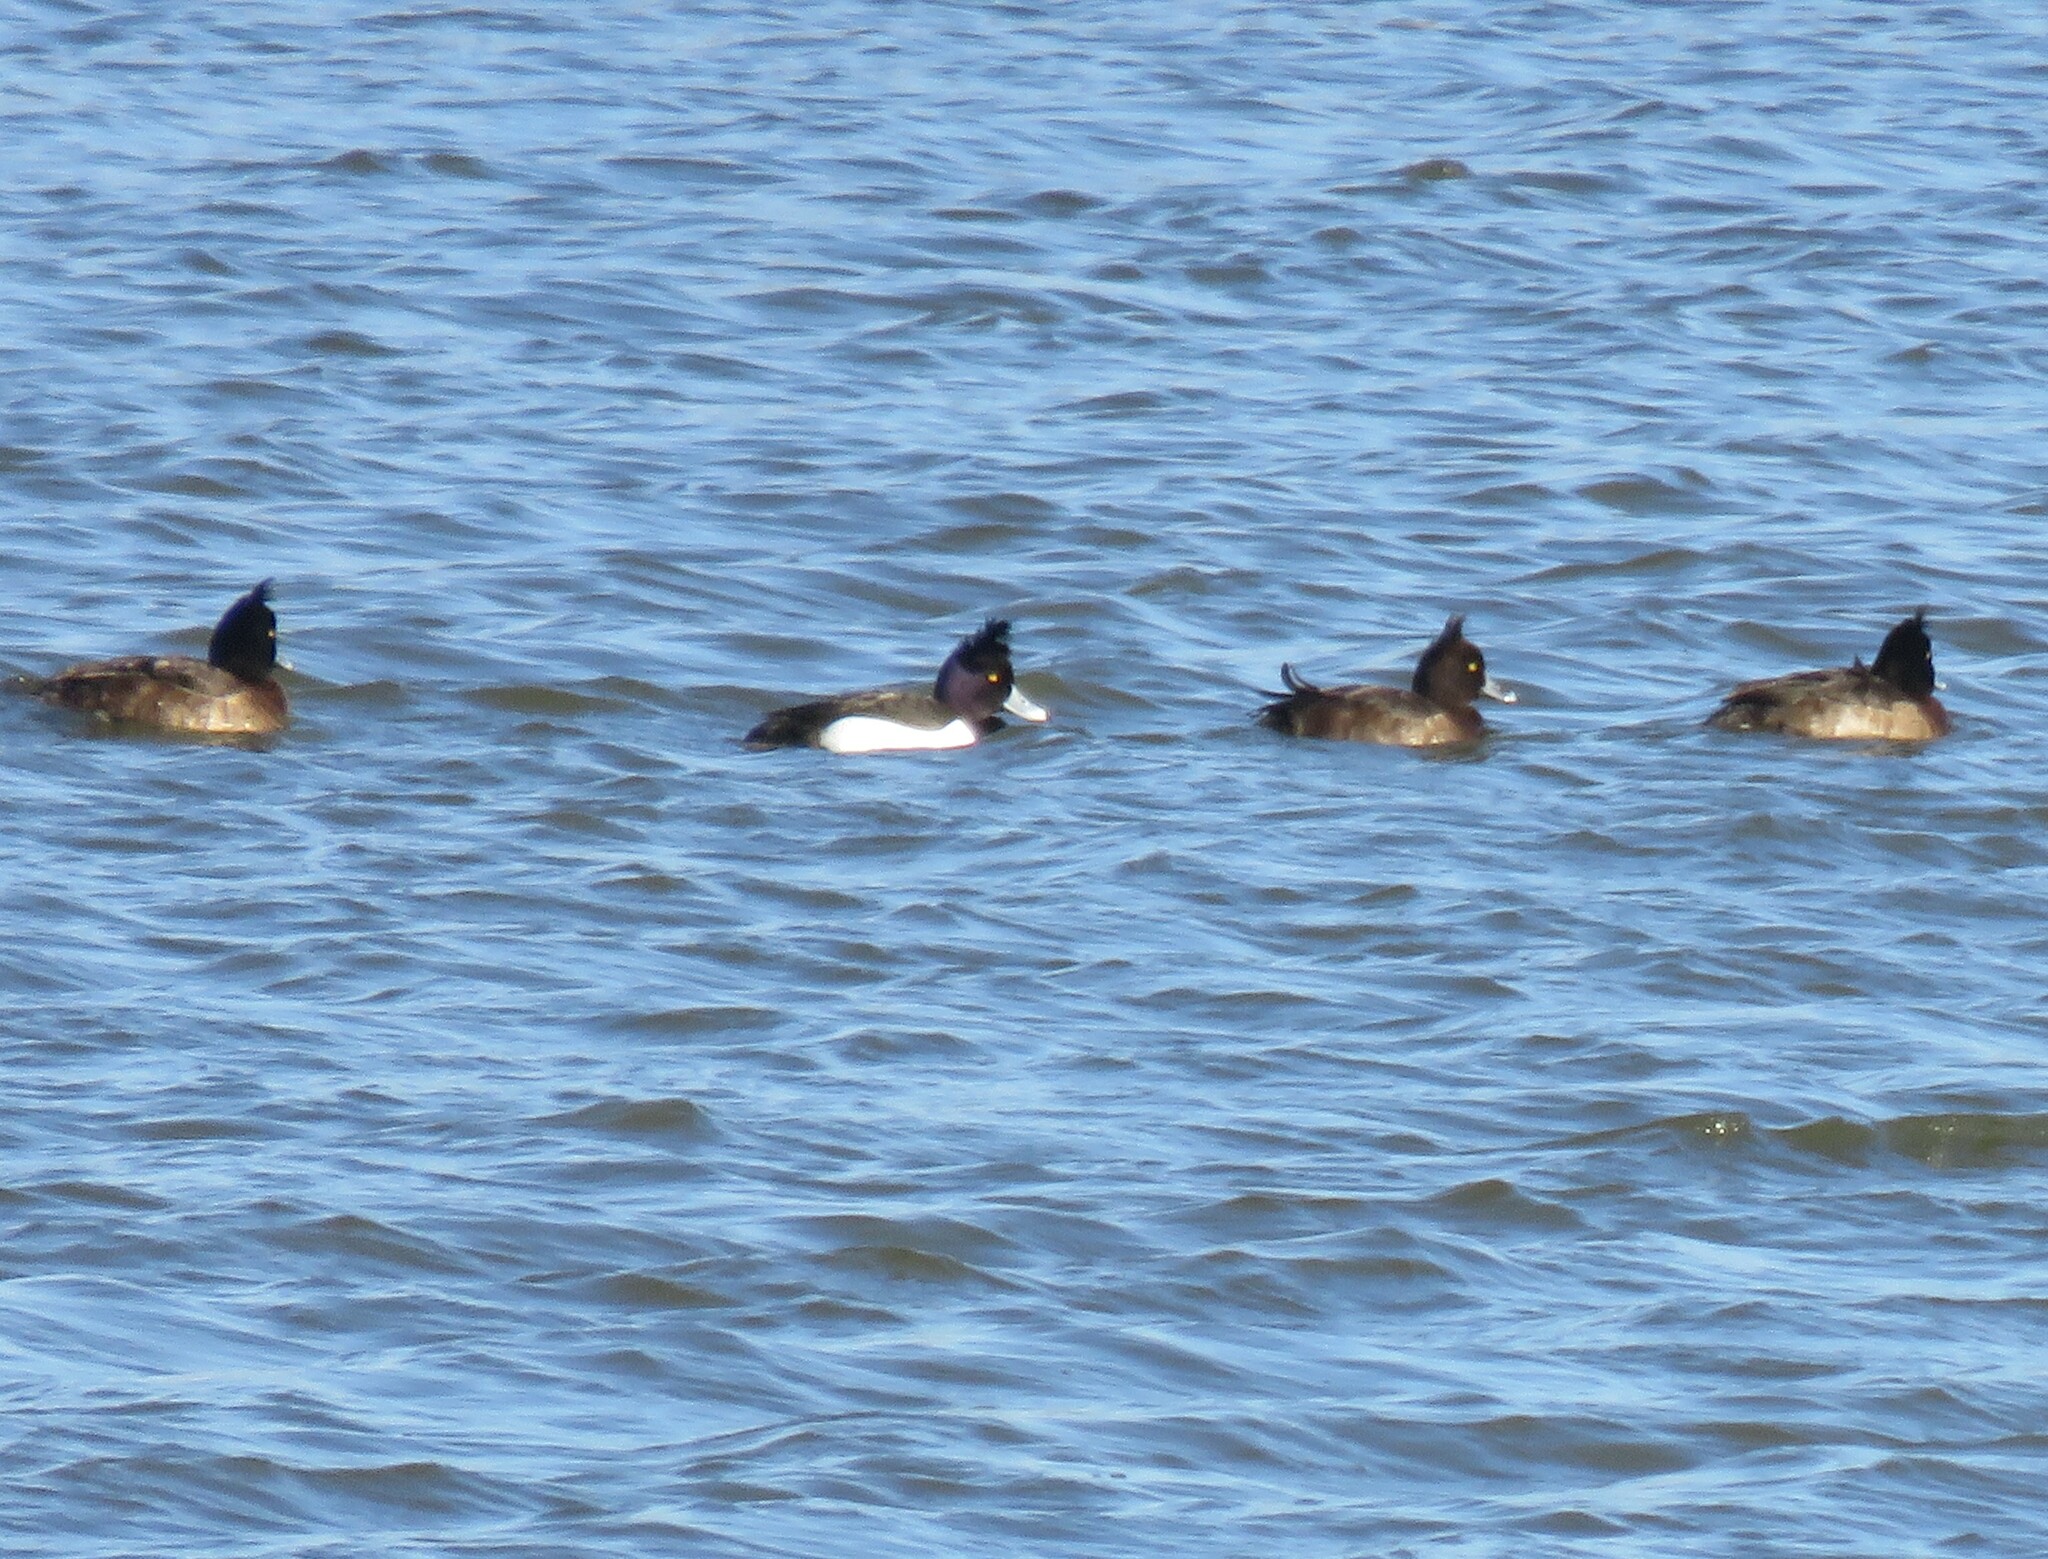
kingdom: Animalia
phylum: Chordata
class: Aves
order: Anseriformes
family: Anatidae
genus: Aythya
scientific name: Aythya fuligula
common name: Tufted duck
